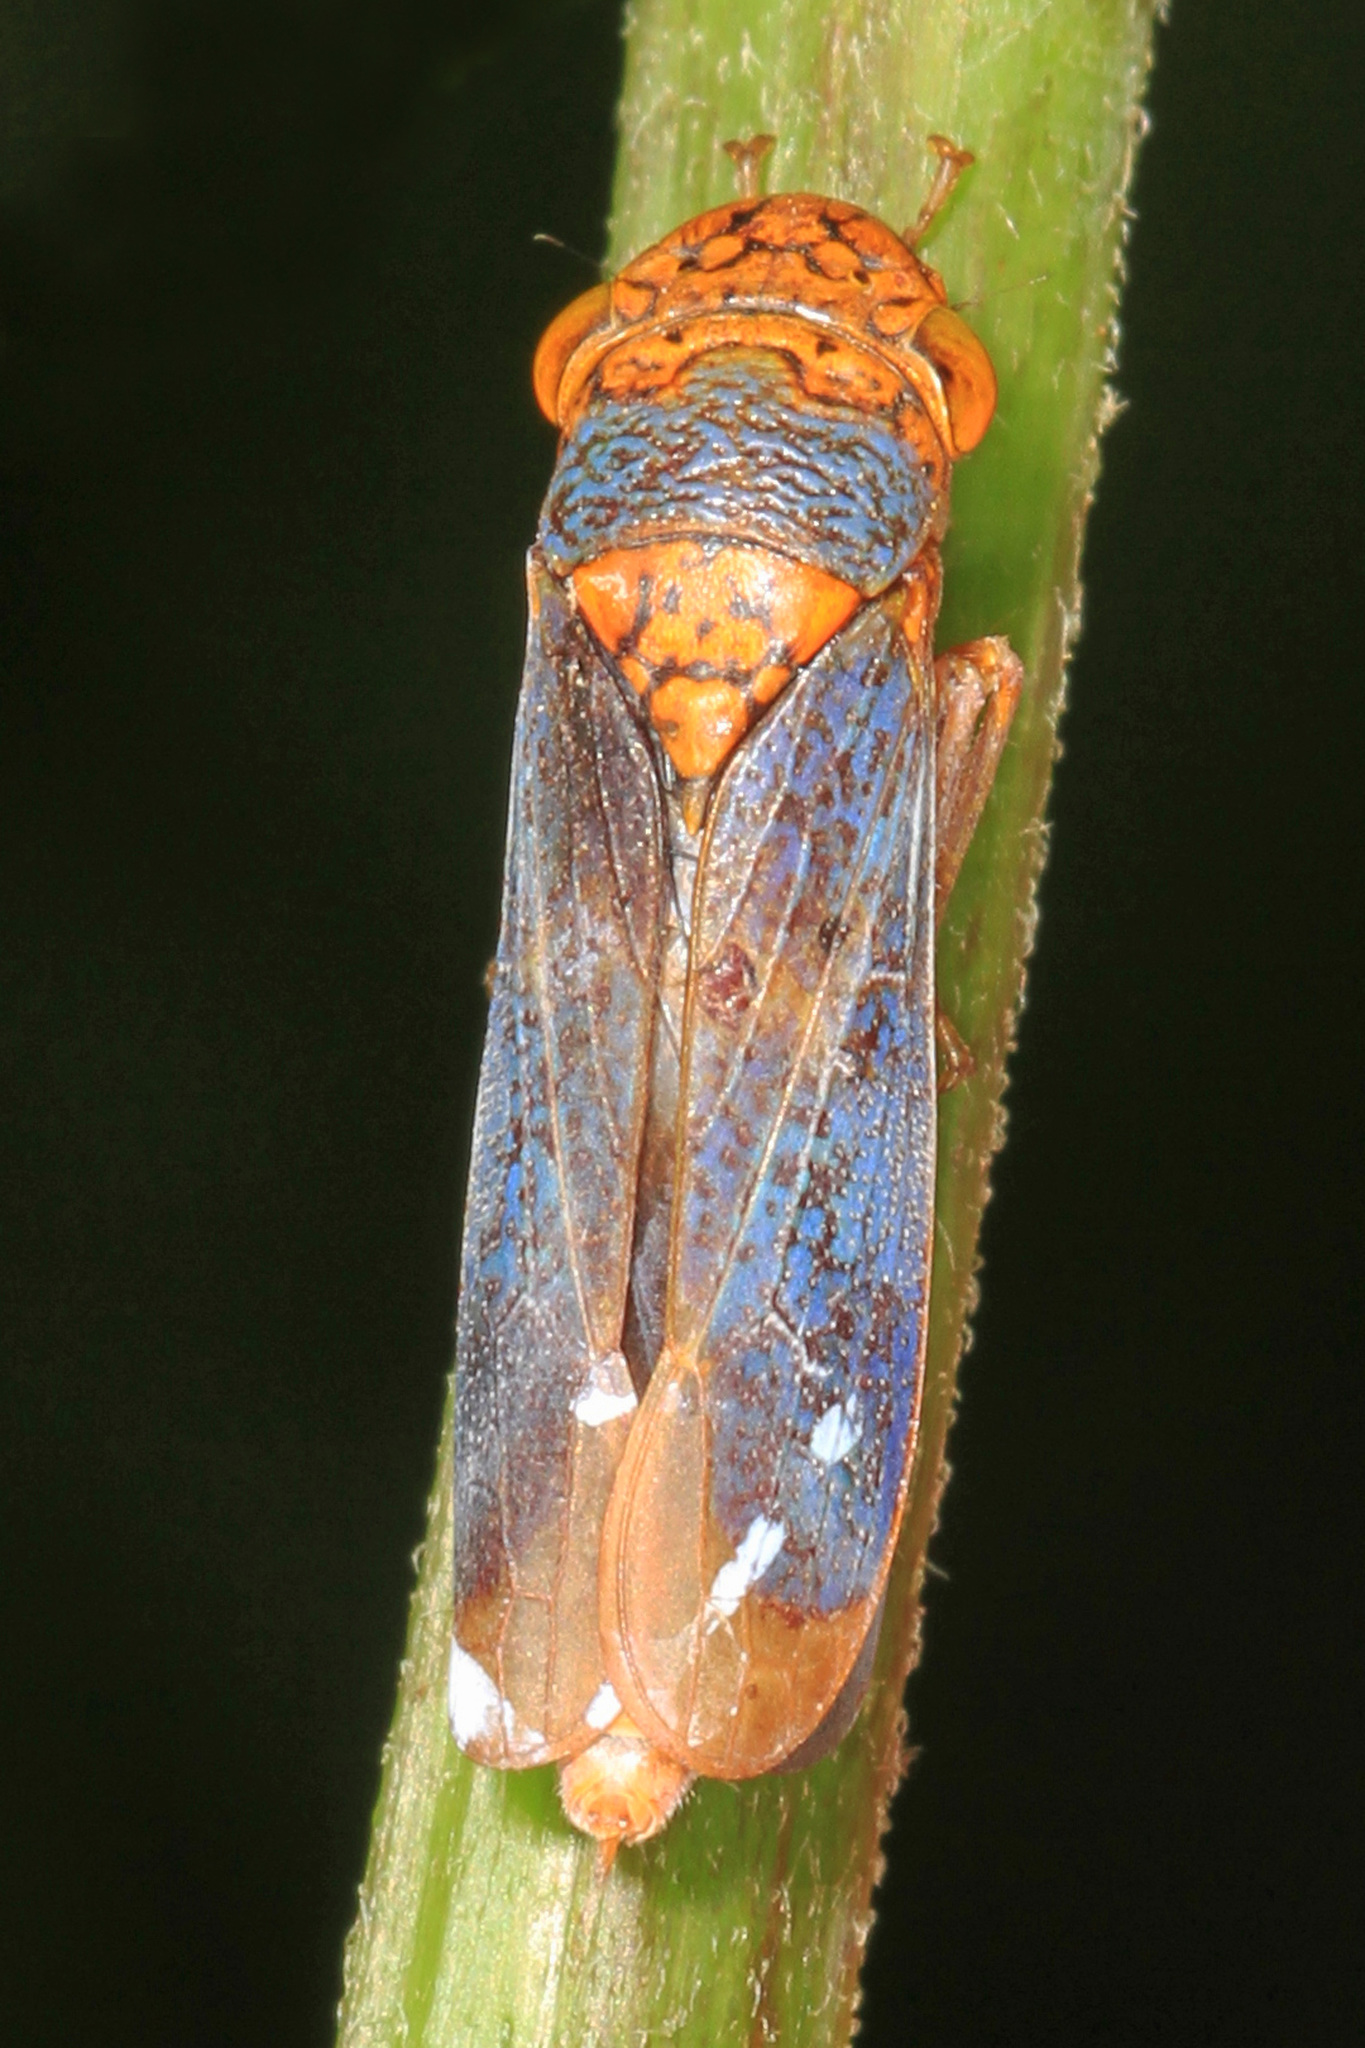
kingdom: Animalia
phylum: Arthropoda
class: Insecta
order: Hemiptera
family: Cicadellidae
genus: Oncometopia
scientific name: Oncometopia orbona
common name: Broad-headed sharpshooter
